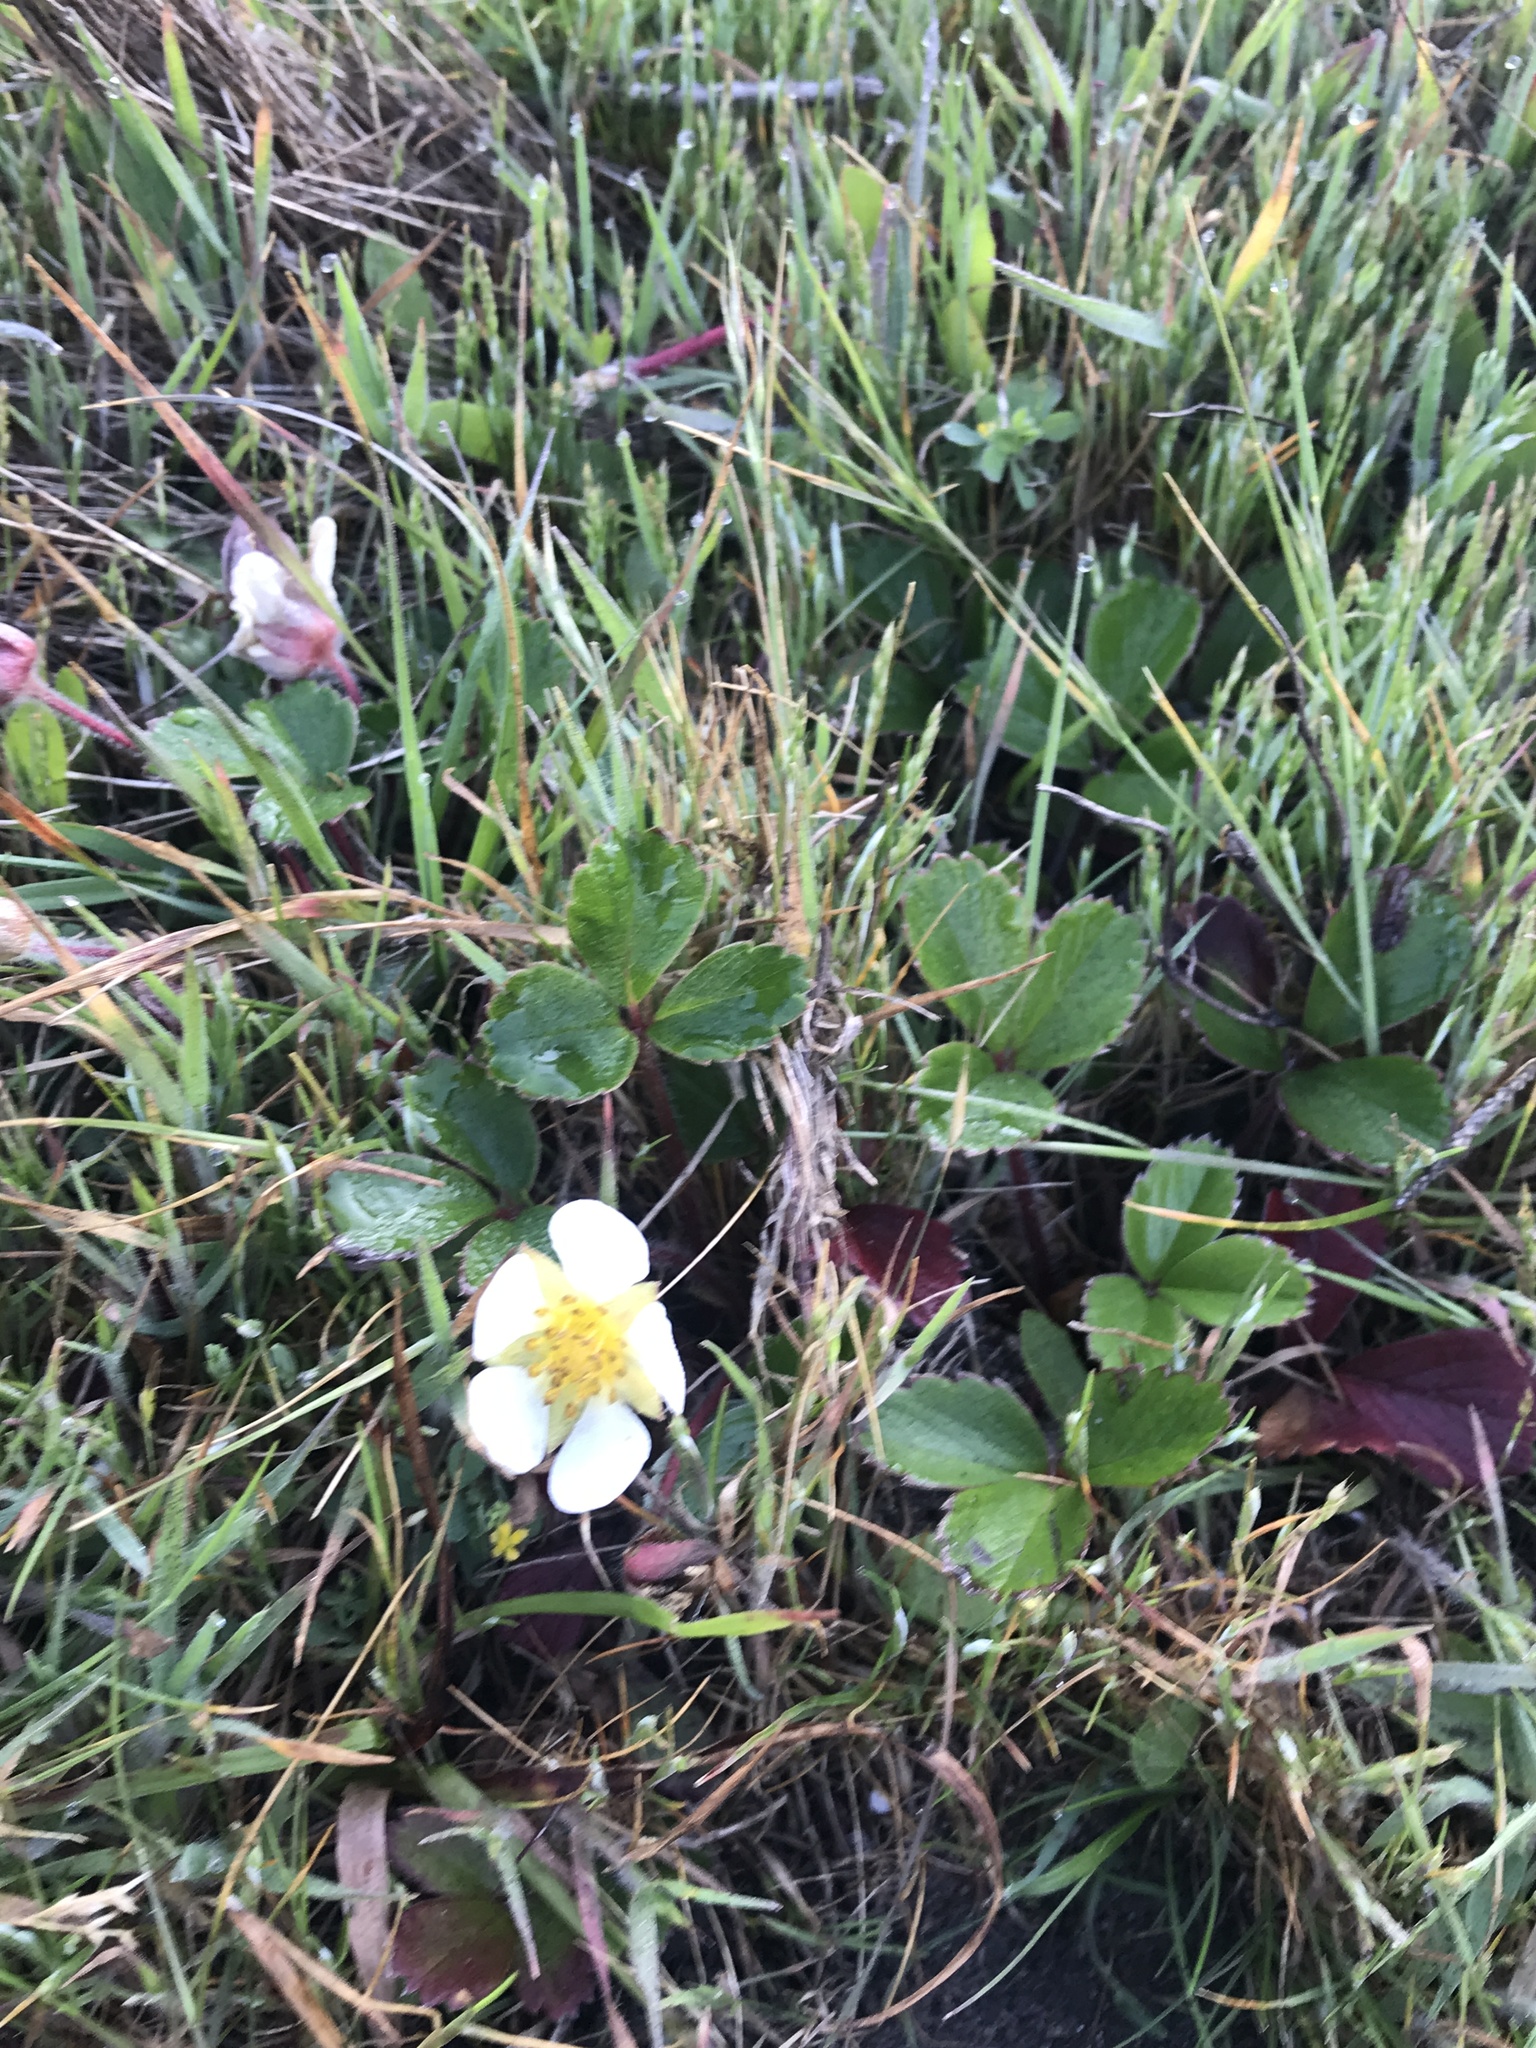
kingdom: Plantae
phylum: Tracheophyta
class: Magnoliopsida
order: Rosales
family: Rosaceae
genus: Fragaria
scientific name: Fragaria chiloensis
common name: Beach strawberry
